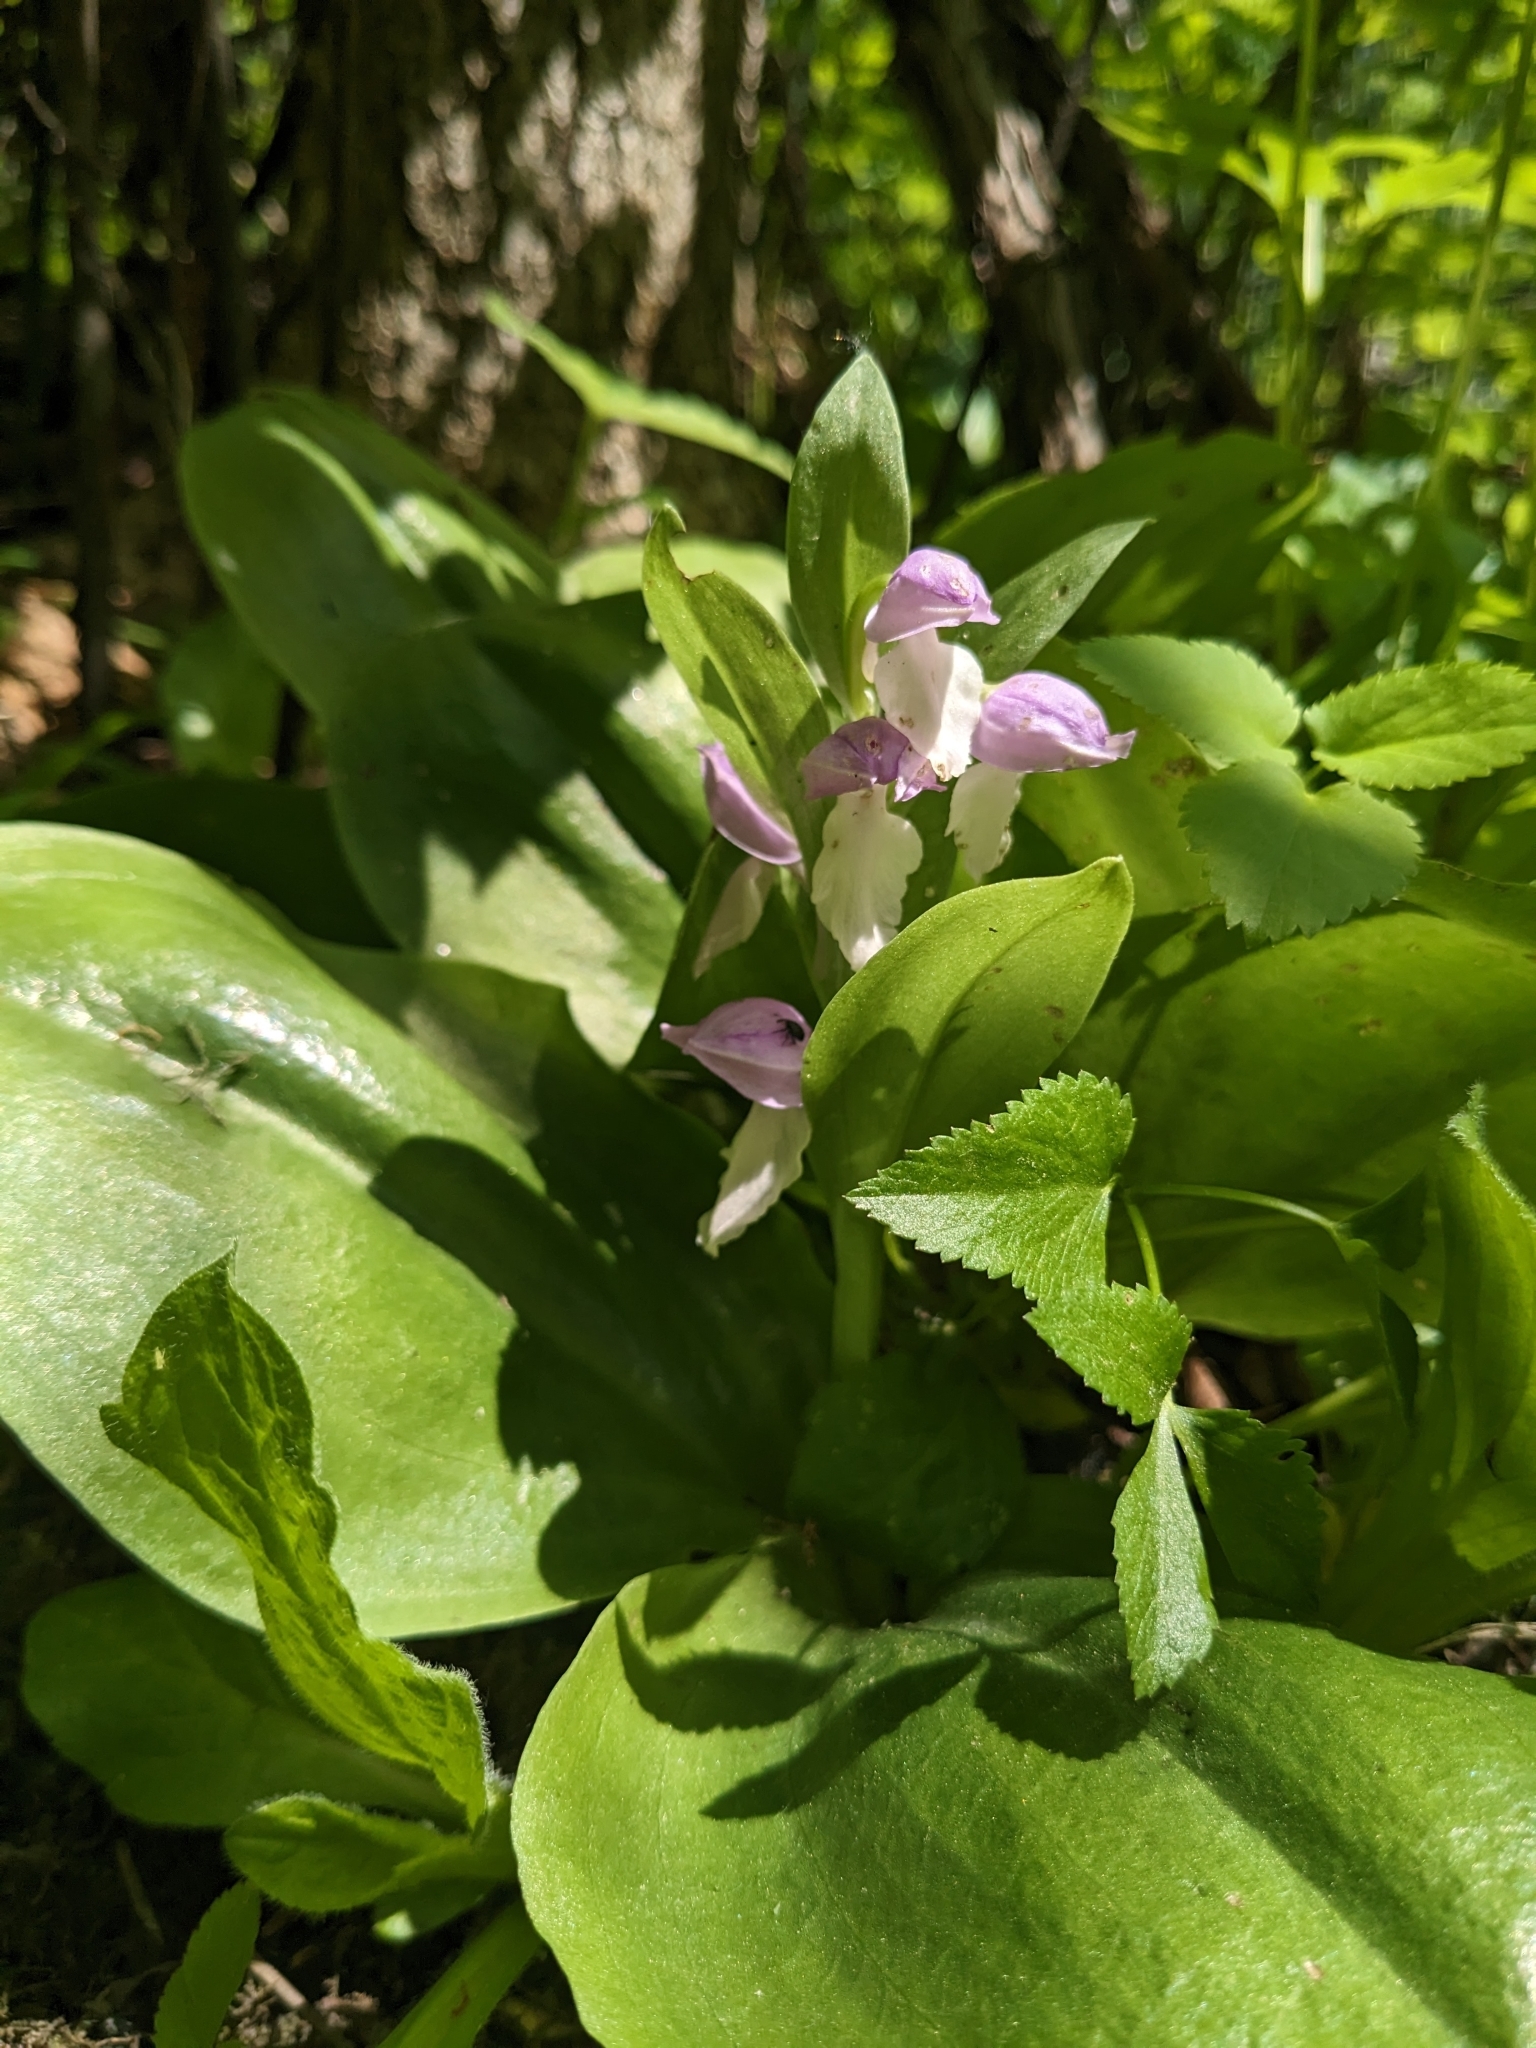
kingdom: Plantae
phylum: Tracheophyta
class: Liliopsida
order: Asparagales
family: Orchidaceae
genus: Galearis
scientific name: Galearis spectabilis
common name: Purple-hooded orchis
